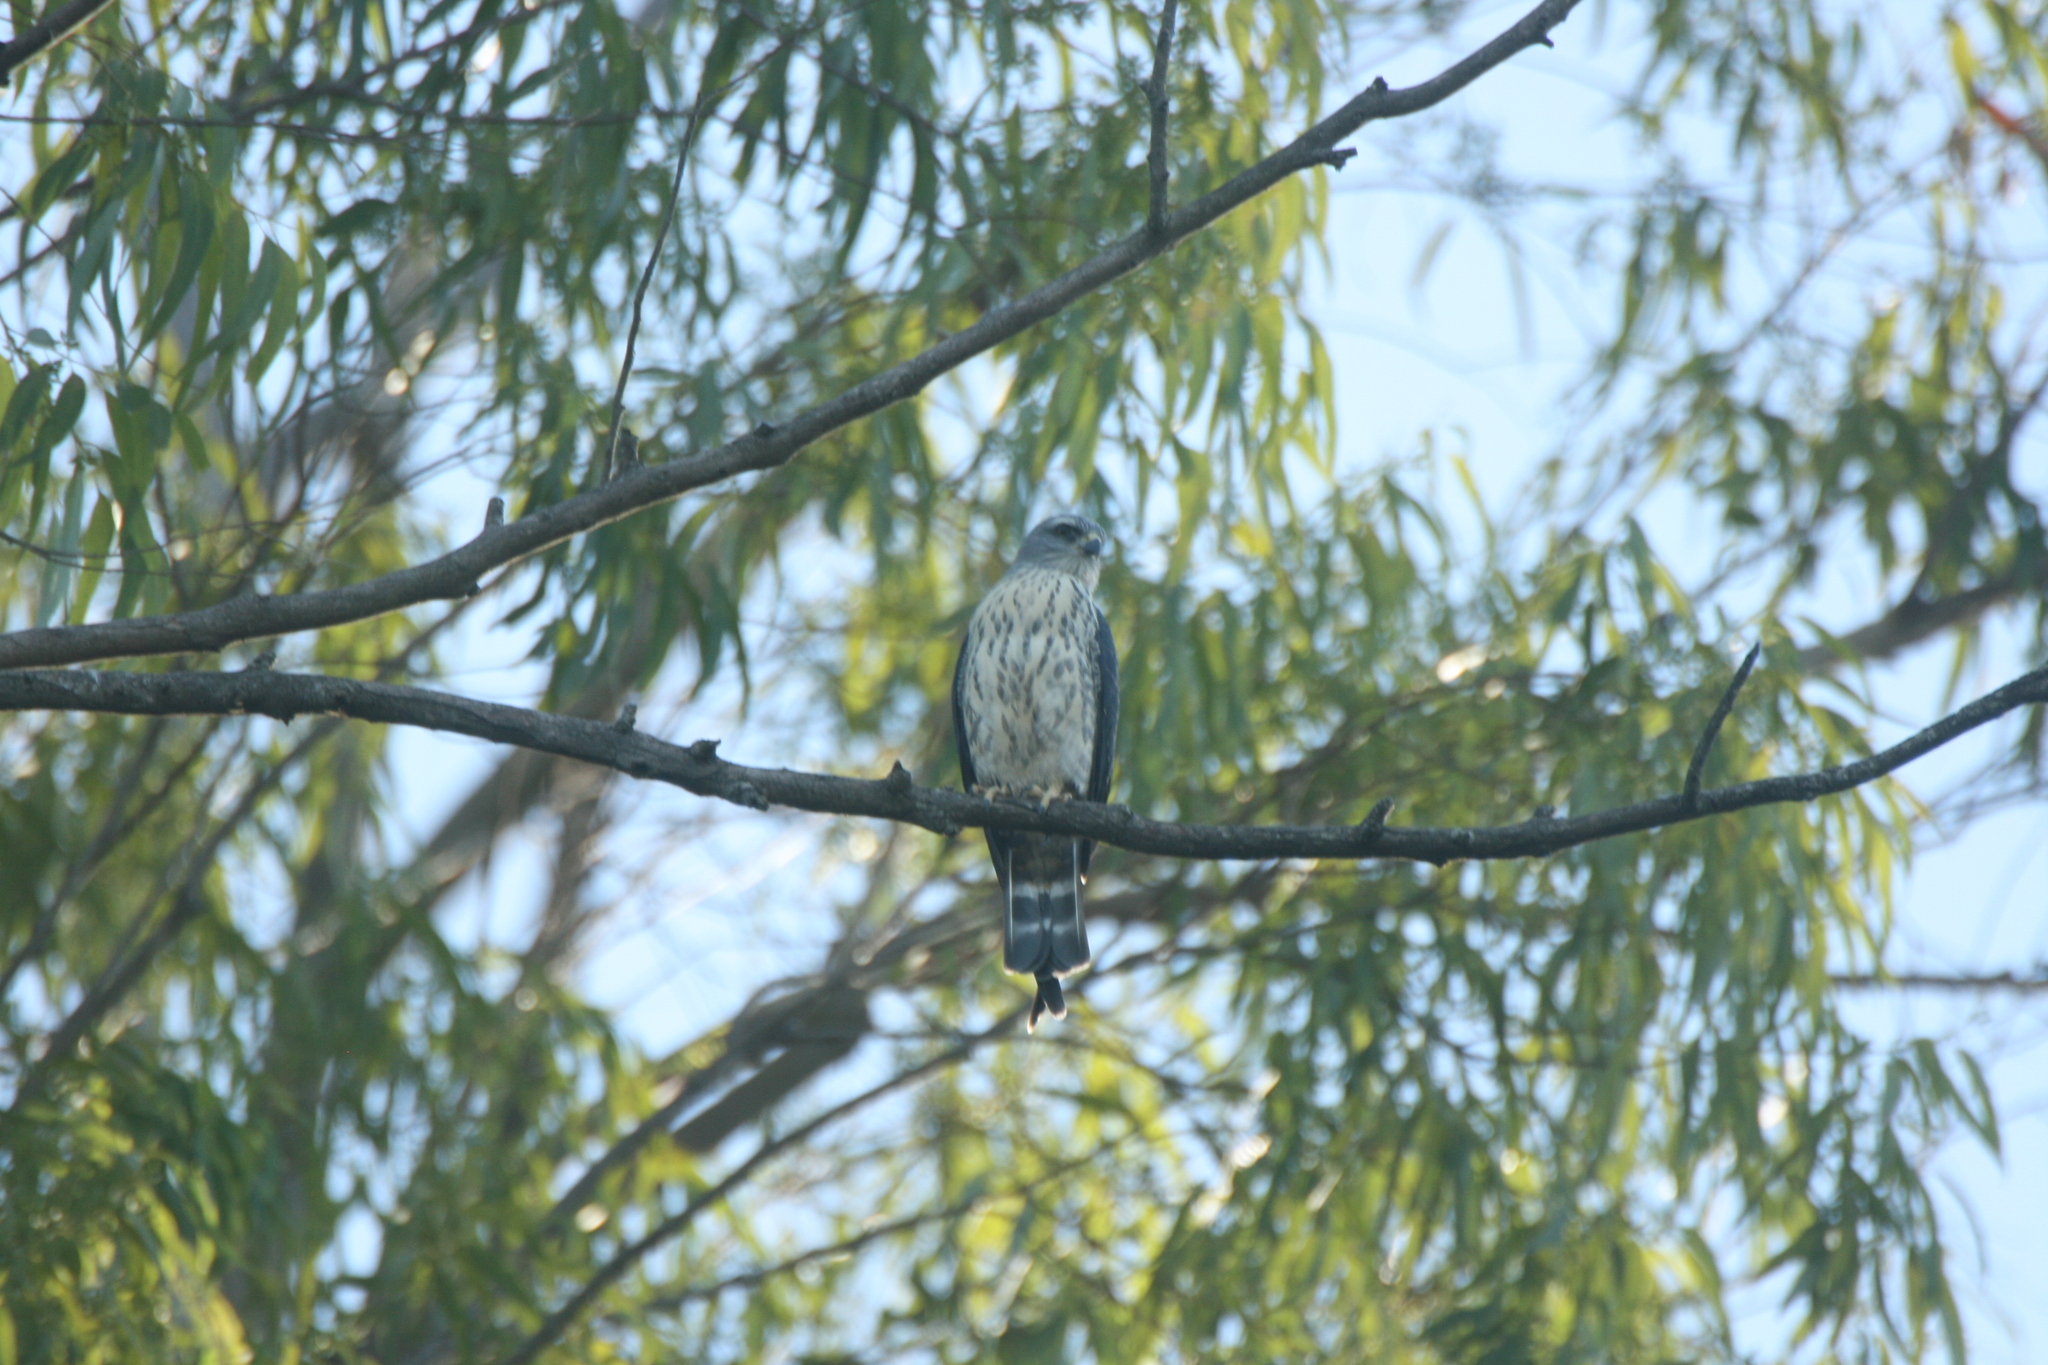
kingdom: Animalia
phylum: Chordata
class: Aves
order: Accipitriformes
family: Accipitridae
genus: Ictinia
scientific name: Ictinia plumbea
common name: Plumbeous kite
